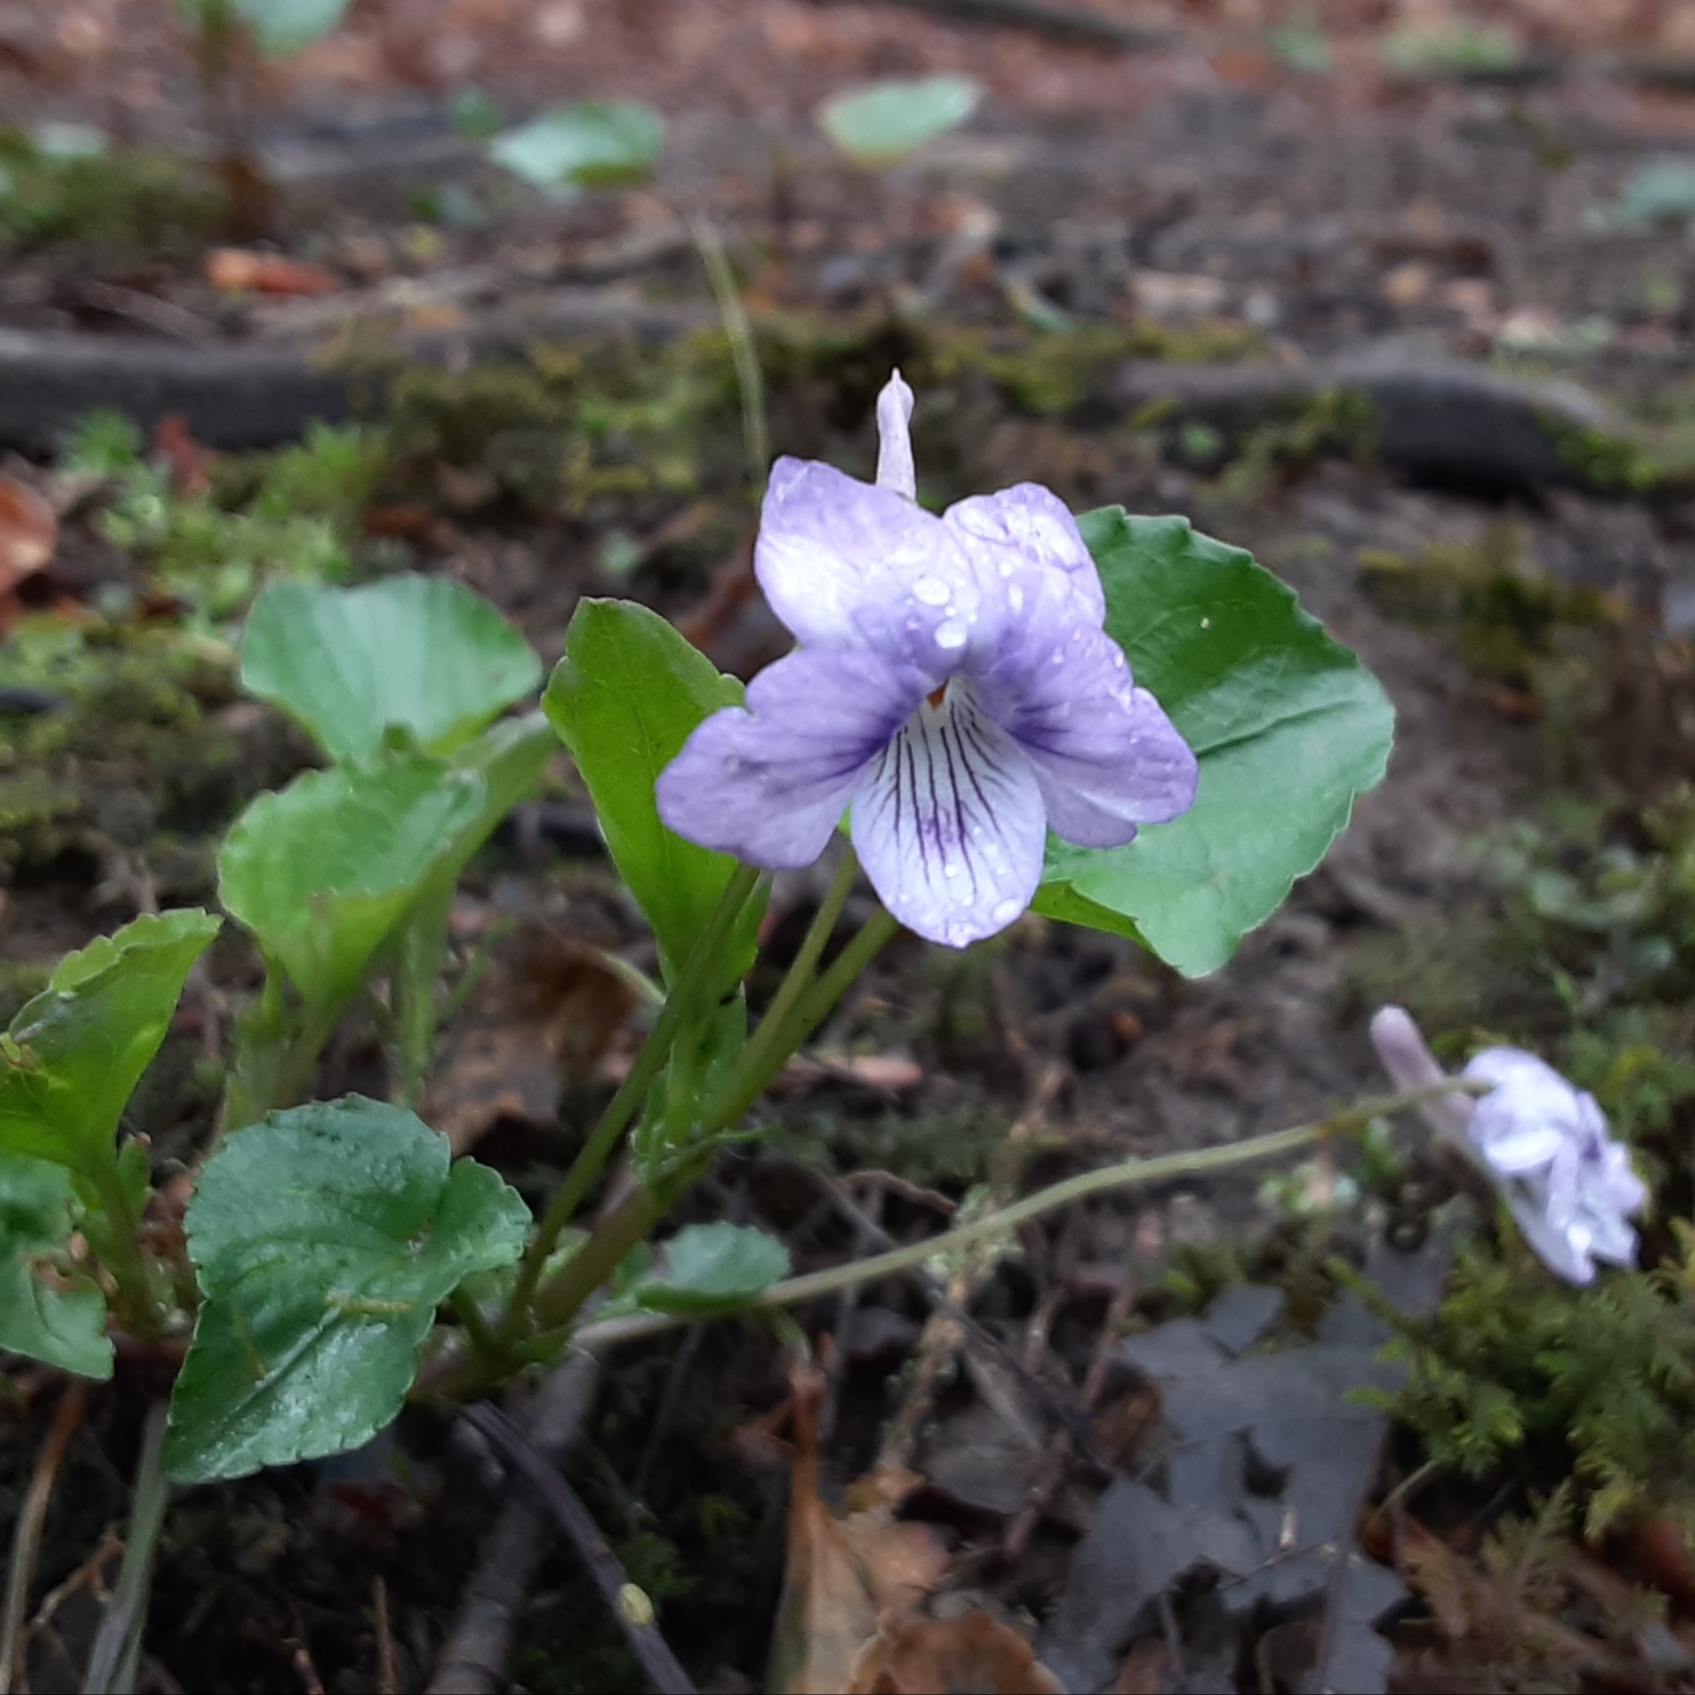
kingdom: Plantae
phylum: Tracheophyta
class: Magnoliopsida
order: Malpighiales
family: Violaceae
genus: Viola
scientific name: Viola rostrata
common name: Long-spur violet
